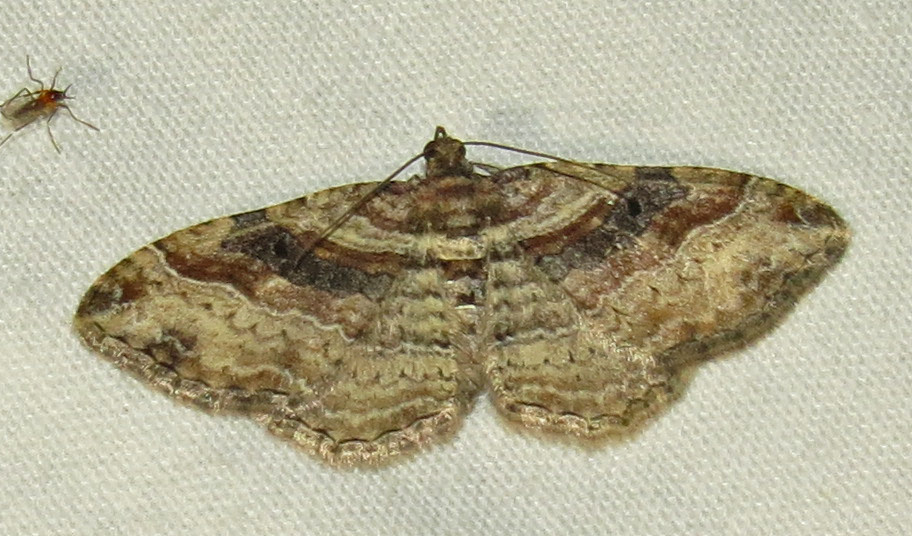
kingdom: Animalia
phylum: Arthropoda
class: Insecta
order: Lepidoptera
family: Geometridae
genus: Costaconvexa
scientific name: Costaconvexa centrostrigaria
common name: Bent-line carpet
